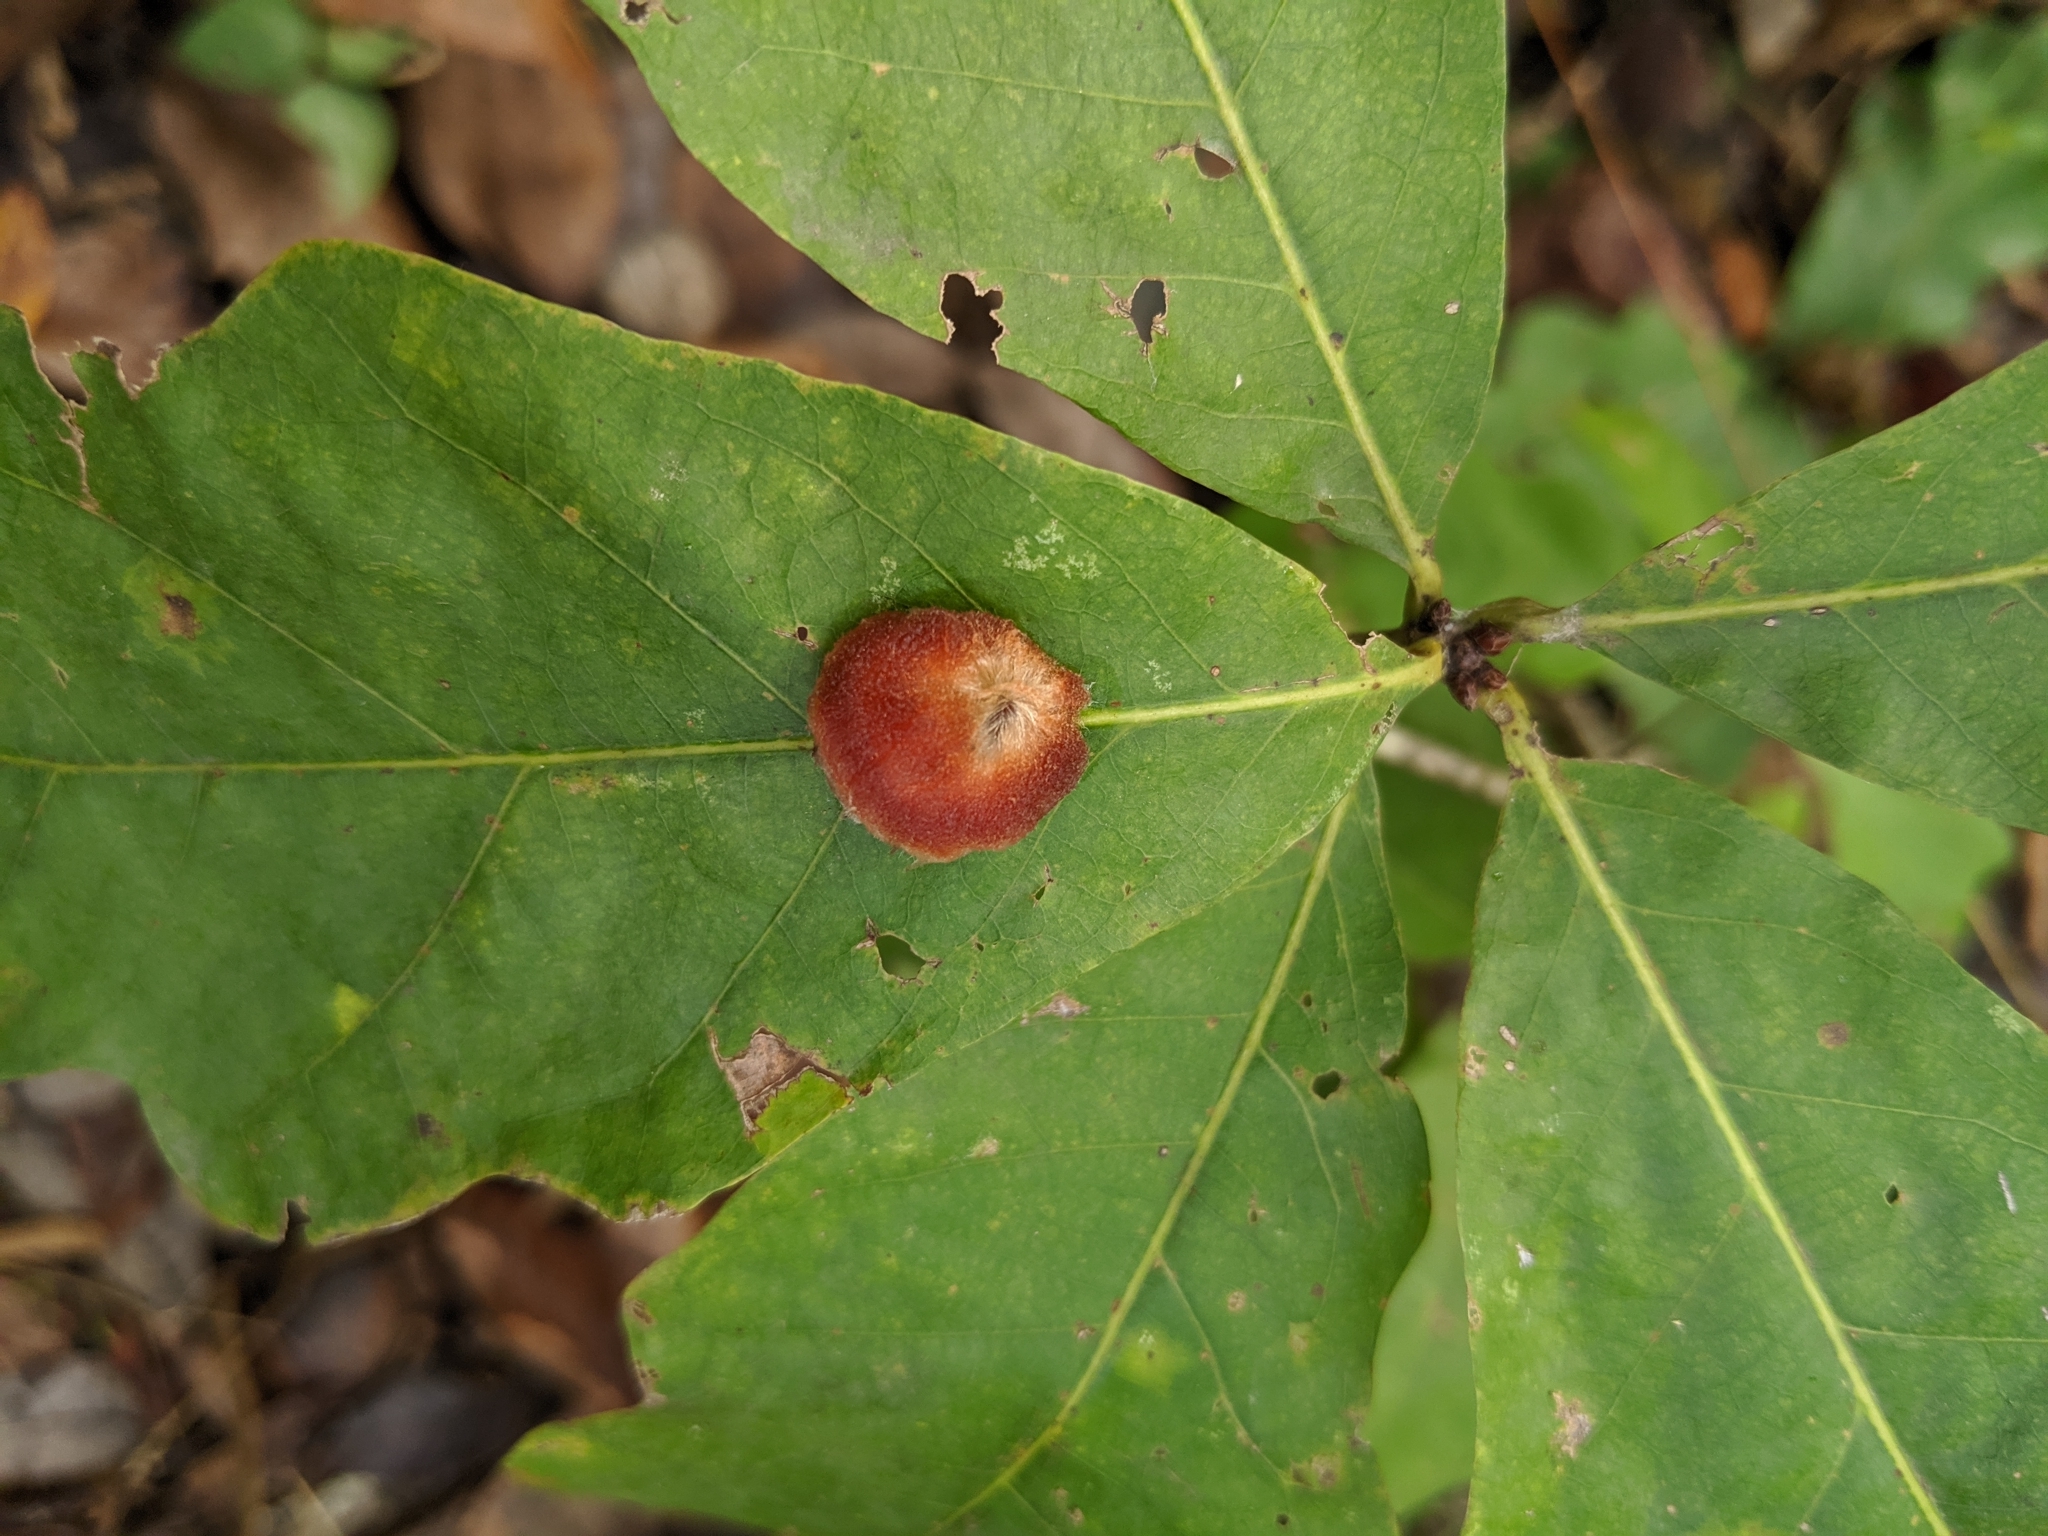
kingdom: Animalia
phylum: Arthropoda
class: Insecta
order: Hymenoptera
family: Cynipidae
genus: Andricus
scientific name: Andricus quercusflocci
